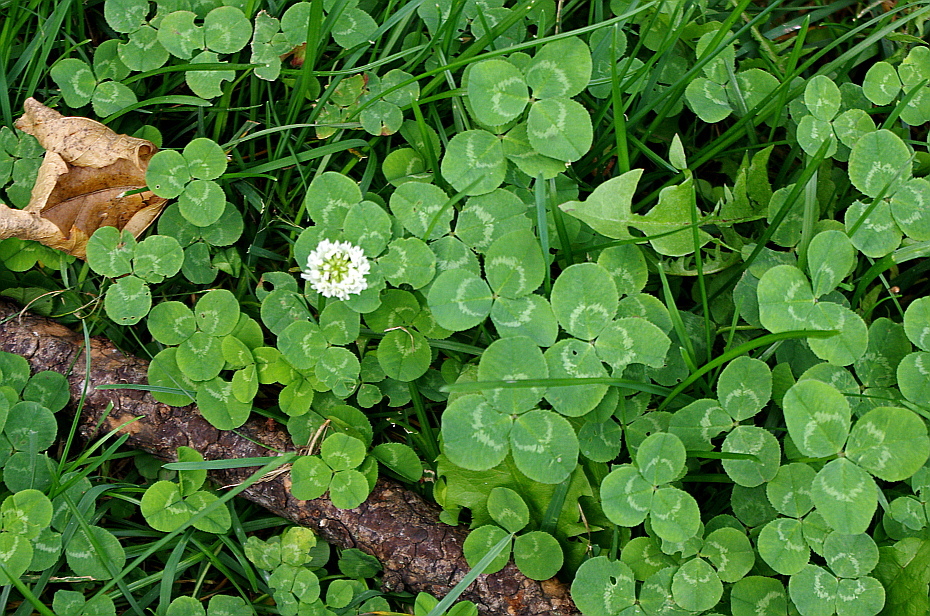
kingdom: Plantae
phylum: Tracheophyta
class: Magnoliopsida
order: Fabales
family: Fabaceae
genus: Trifolium
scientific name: Trifolium repens
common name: White clover
